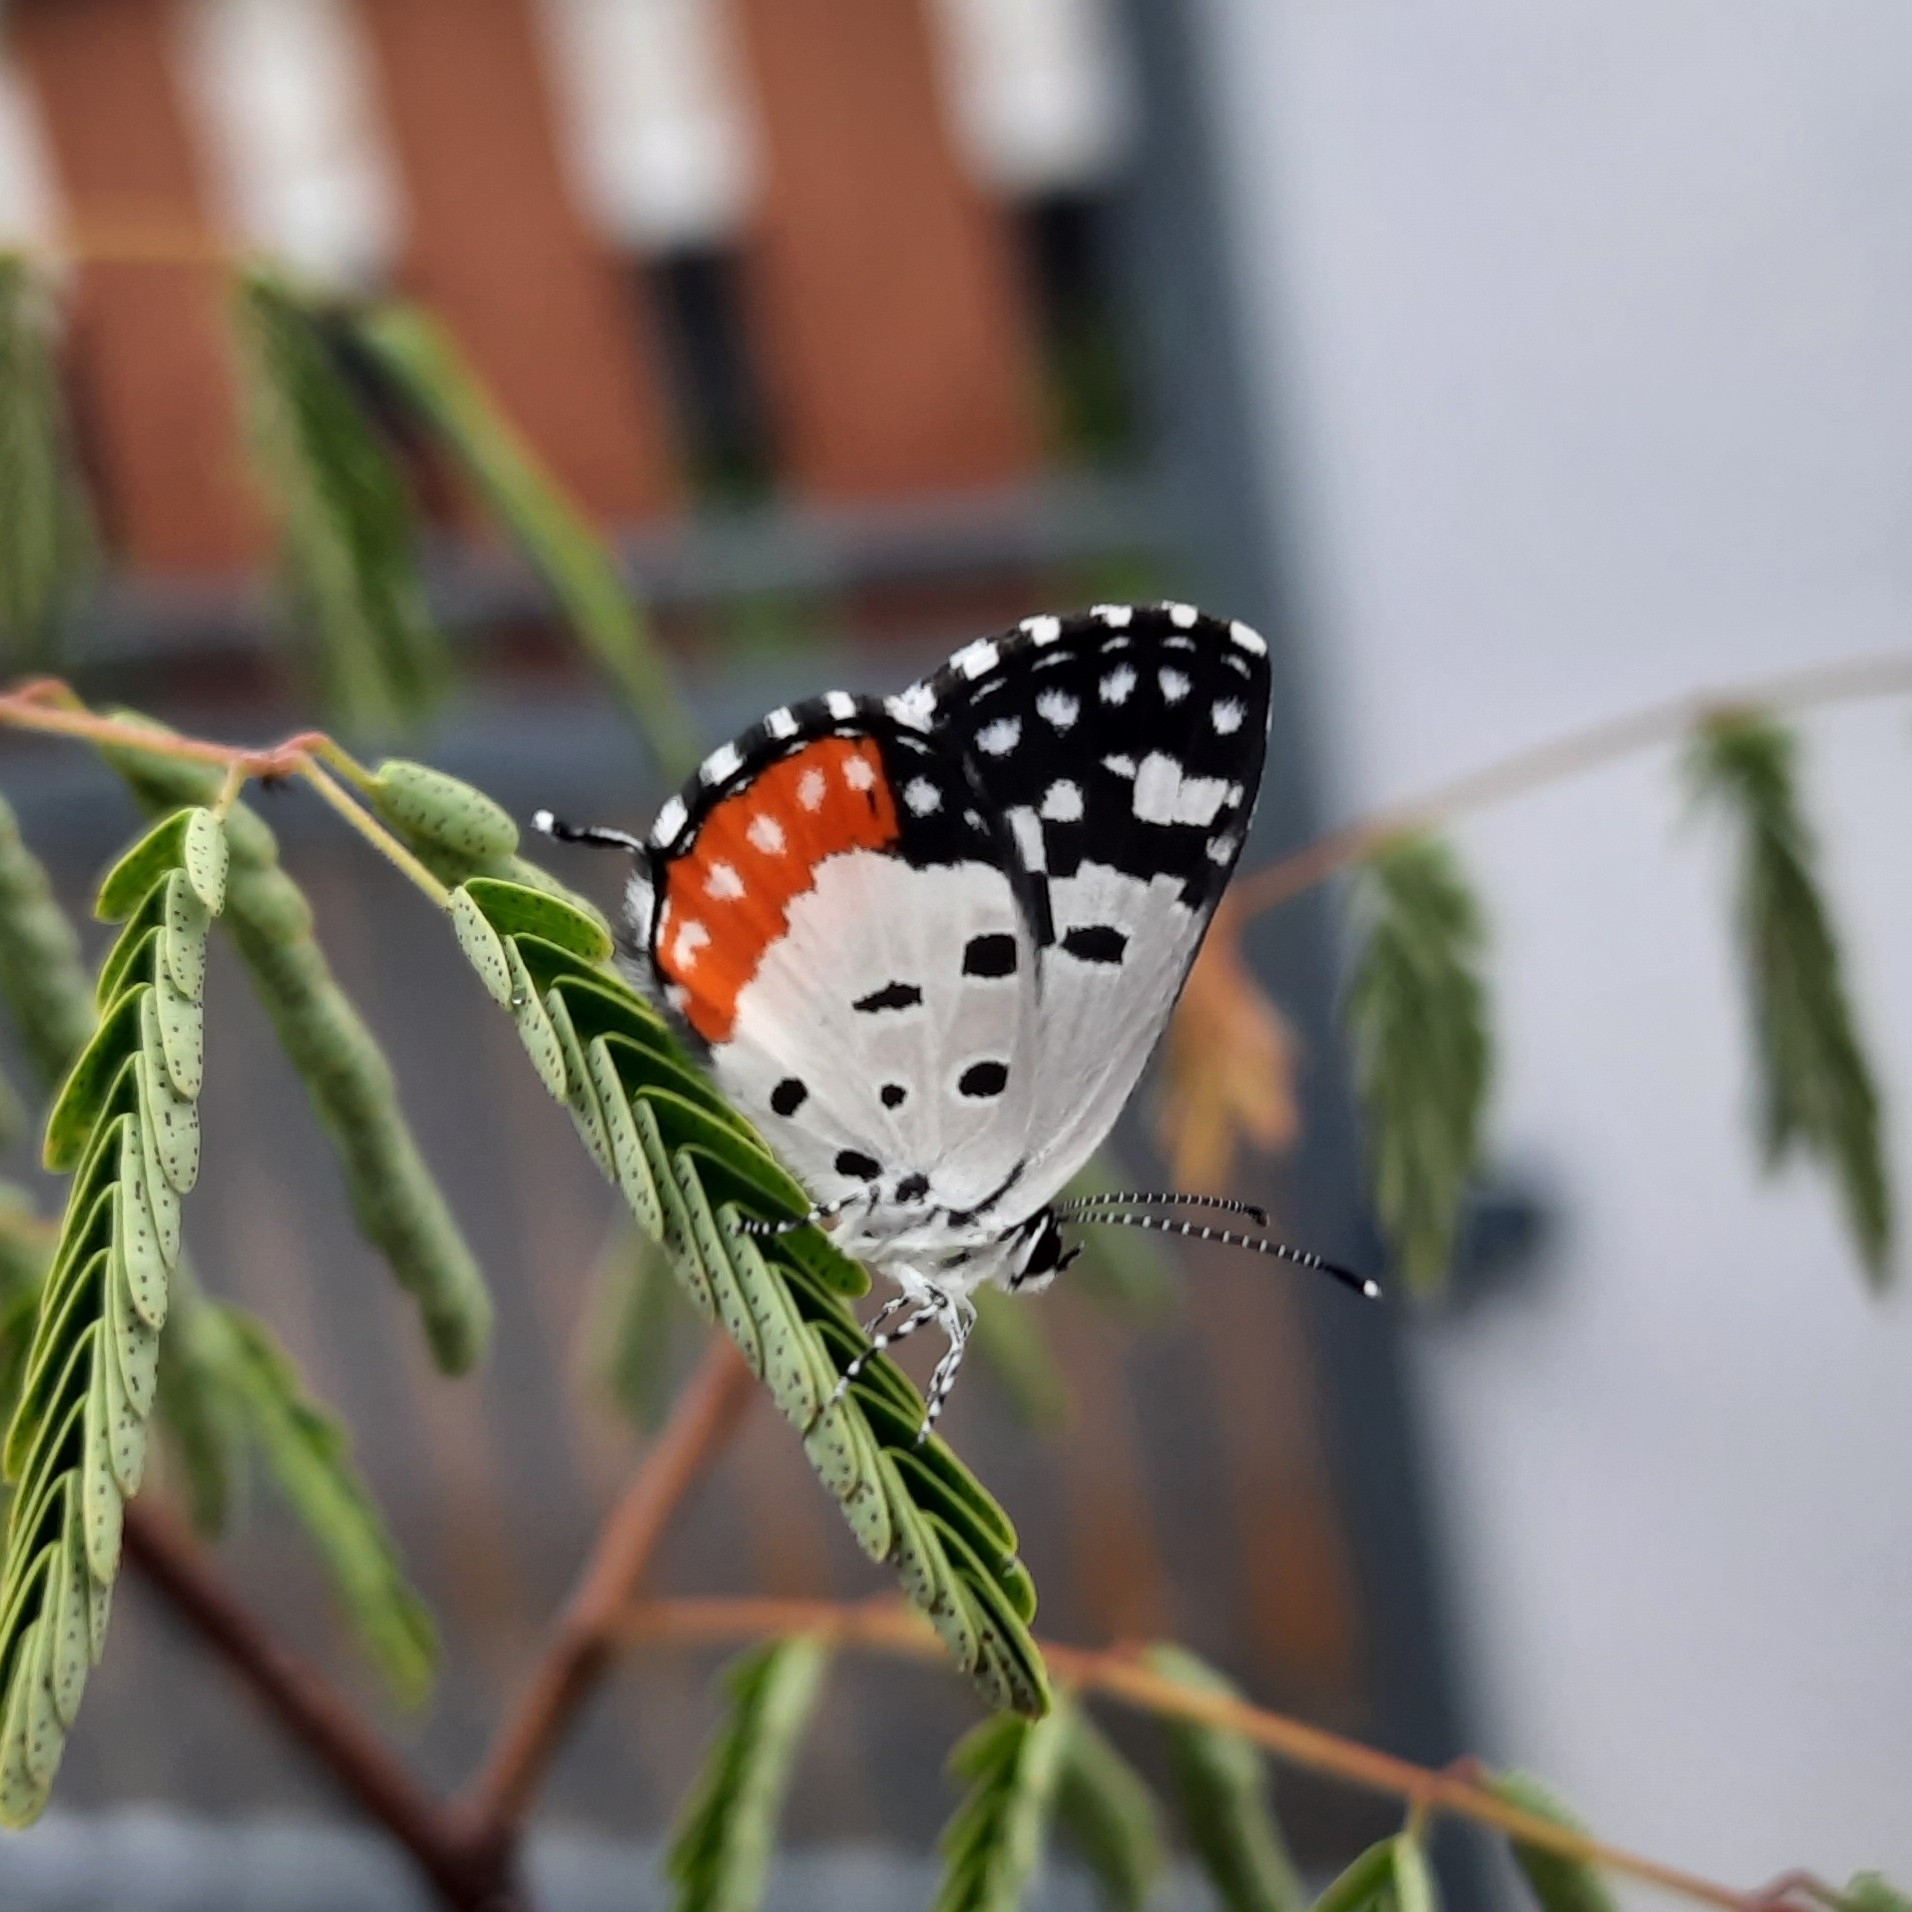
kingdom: Animalia
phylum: Arthropoda
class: Insecta
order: Lepidoptera
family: Lycaenidae
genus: Talicada
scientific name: Talicada nyseus
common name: Red pierrot
